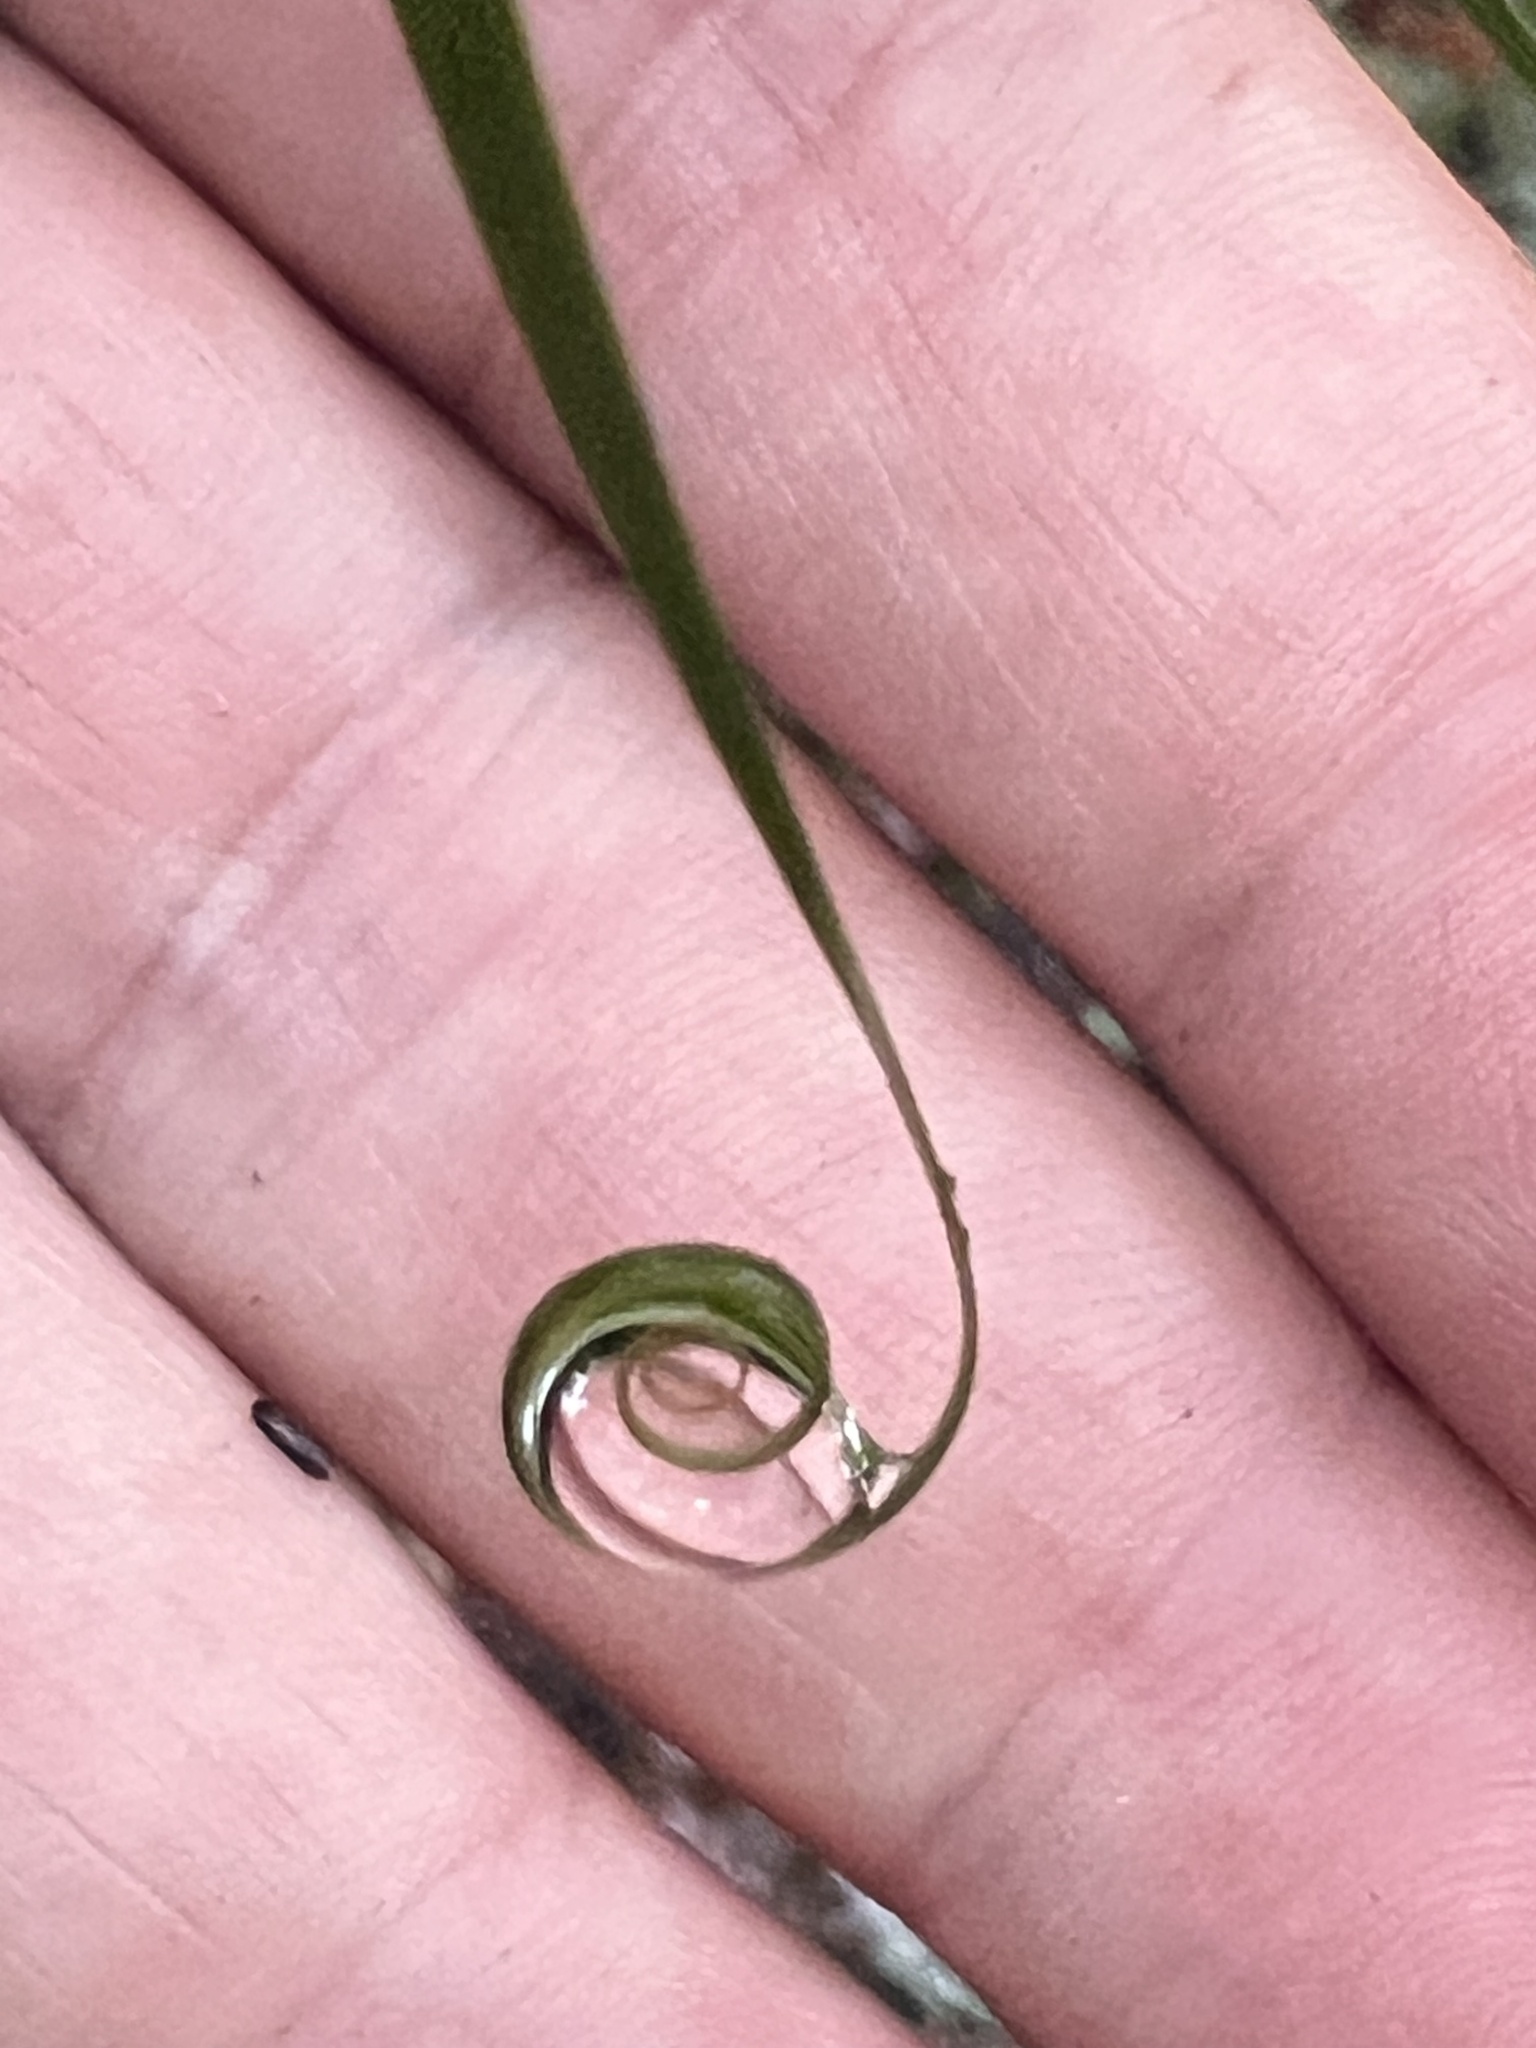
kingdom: Plantae
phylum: Tracheophyta
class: Liliopsida
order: Poales
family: Flagellariaceae
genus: Flagellaria
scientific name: Flagellaria indica
